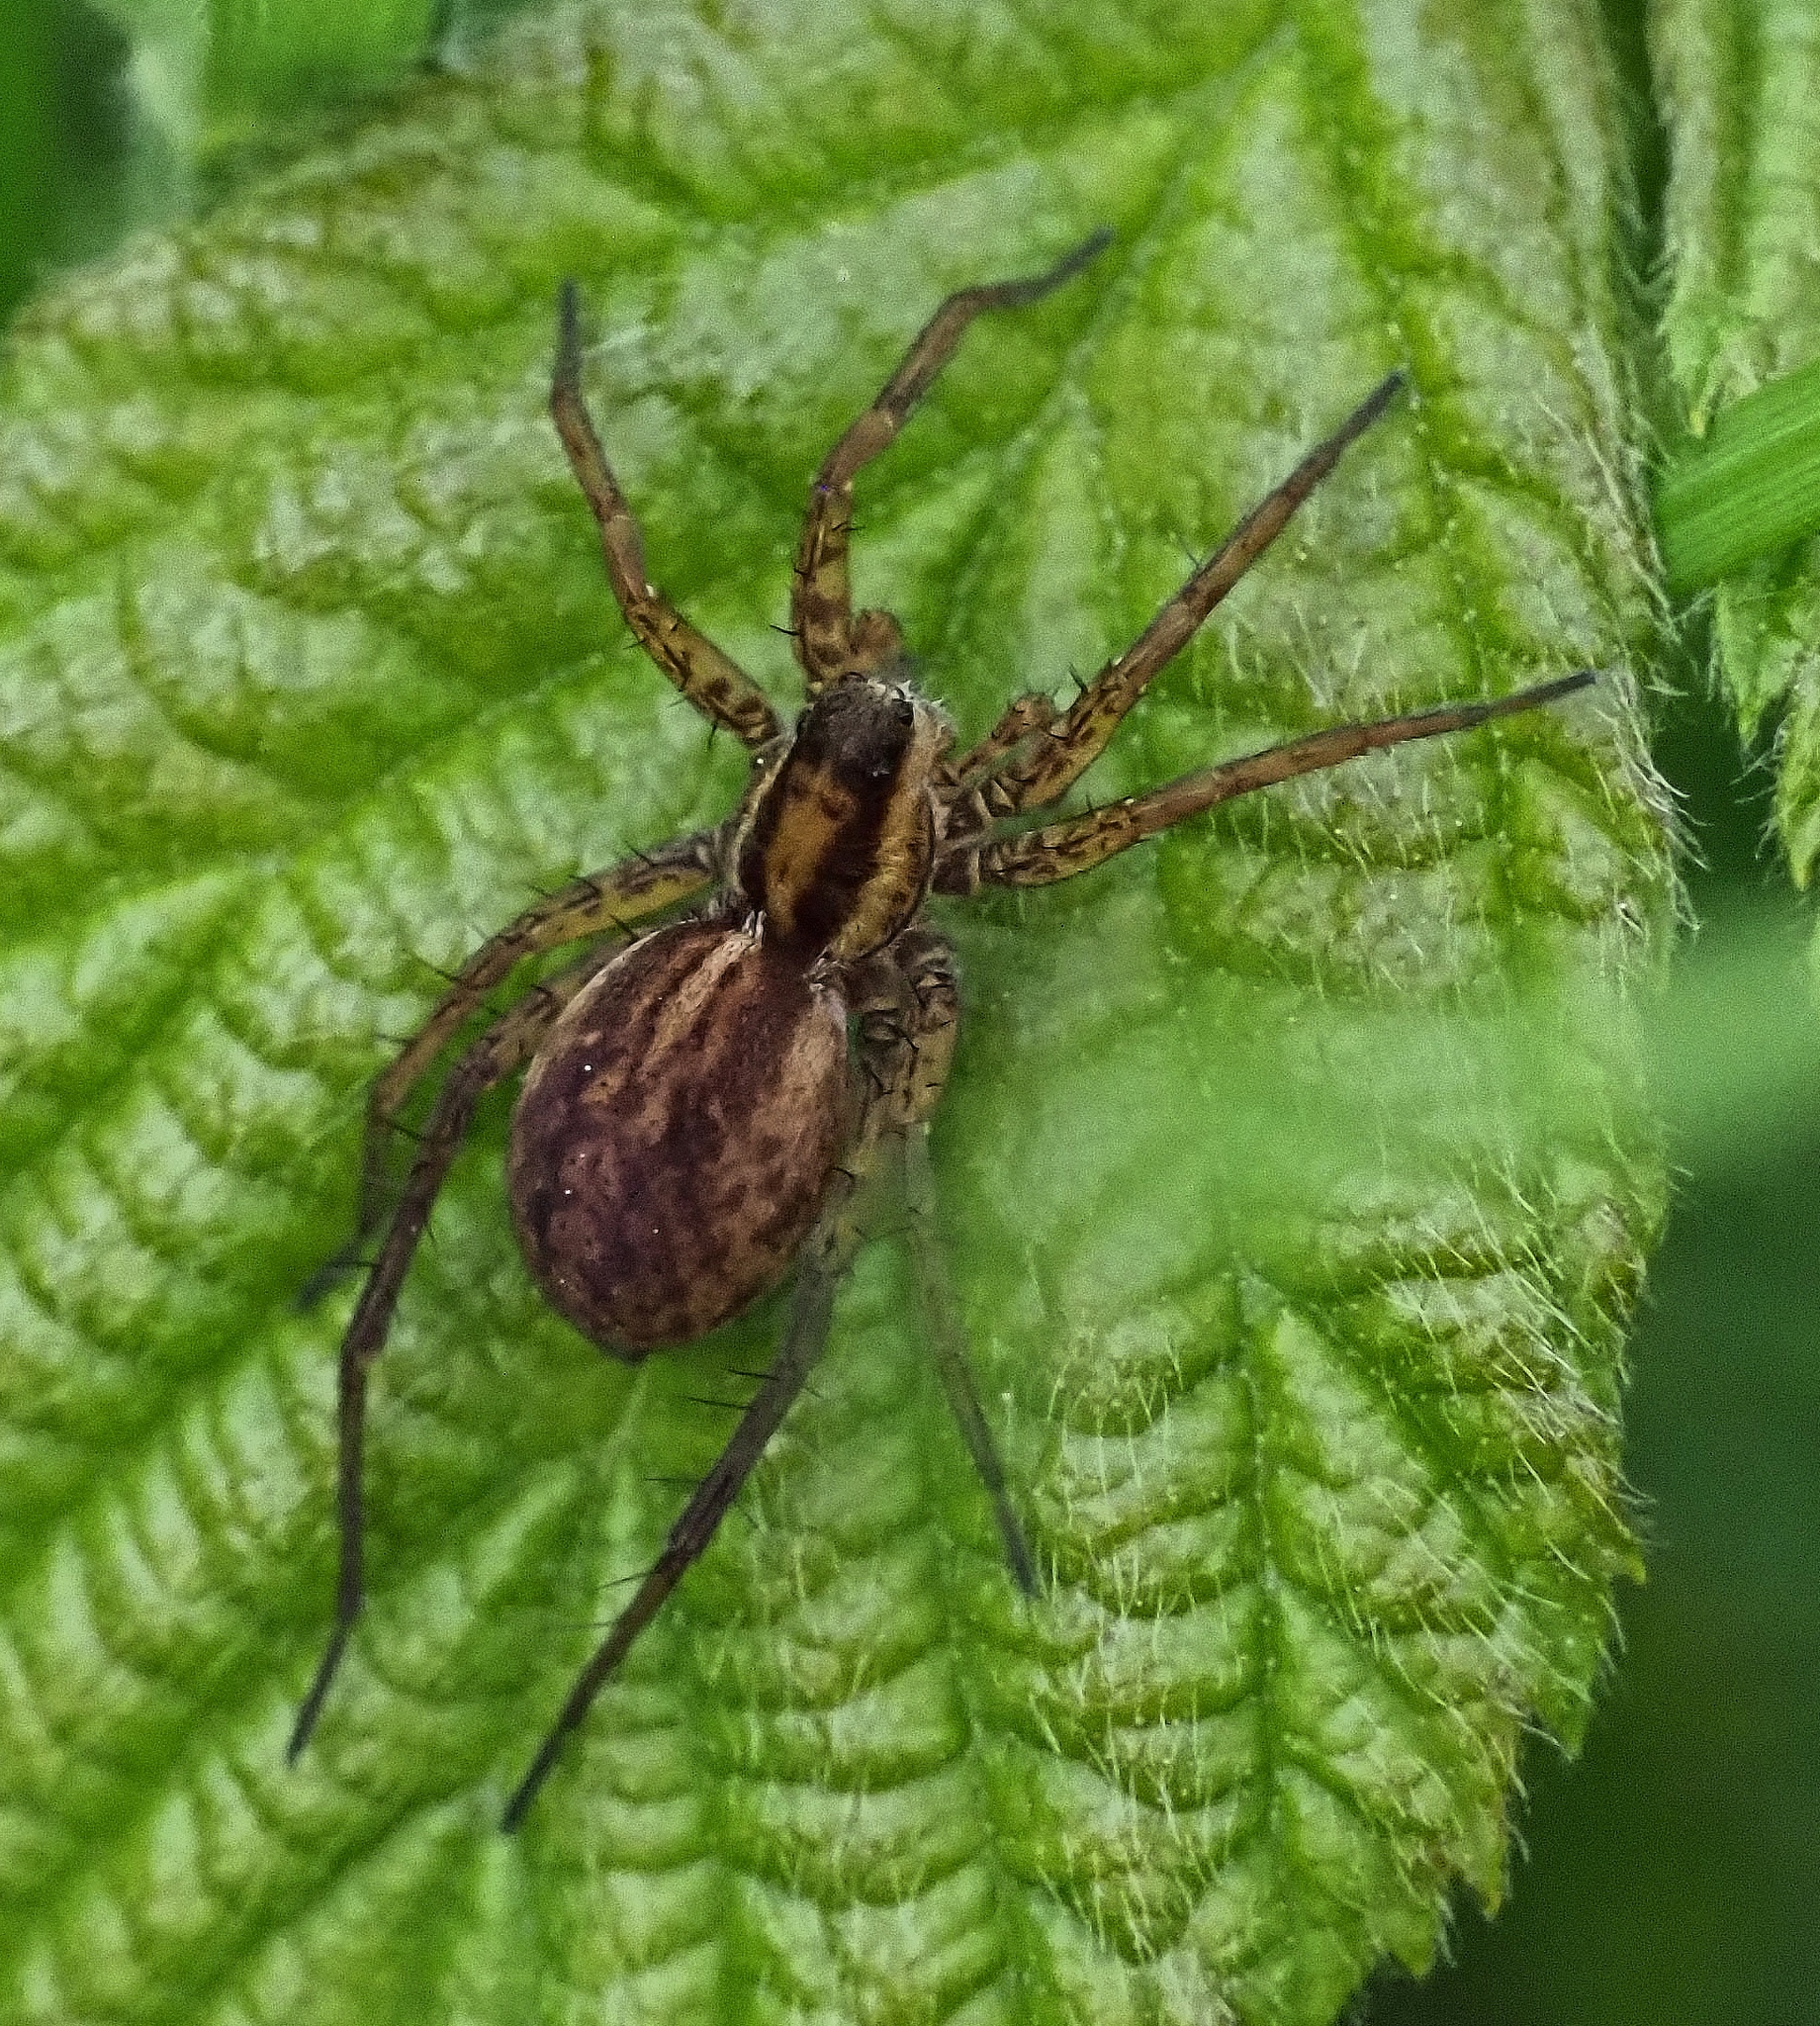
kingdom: Animalia
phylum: Arthropoda
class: Arachnida
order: Araneae
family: Lycosidae
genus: Pardosa
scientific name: Pardosa nigriceps
